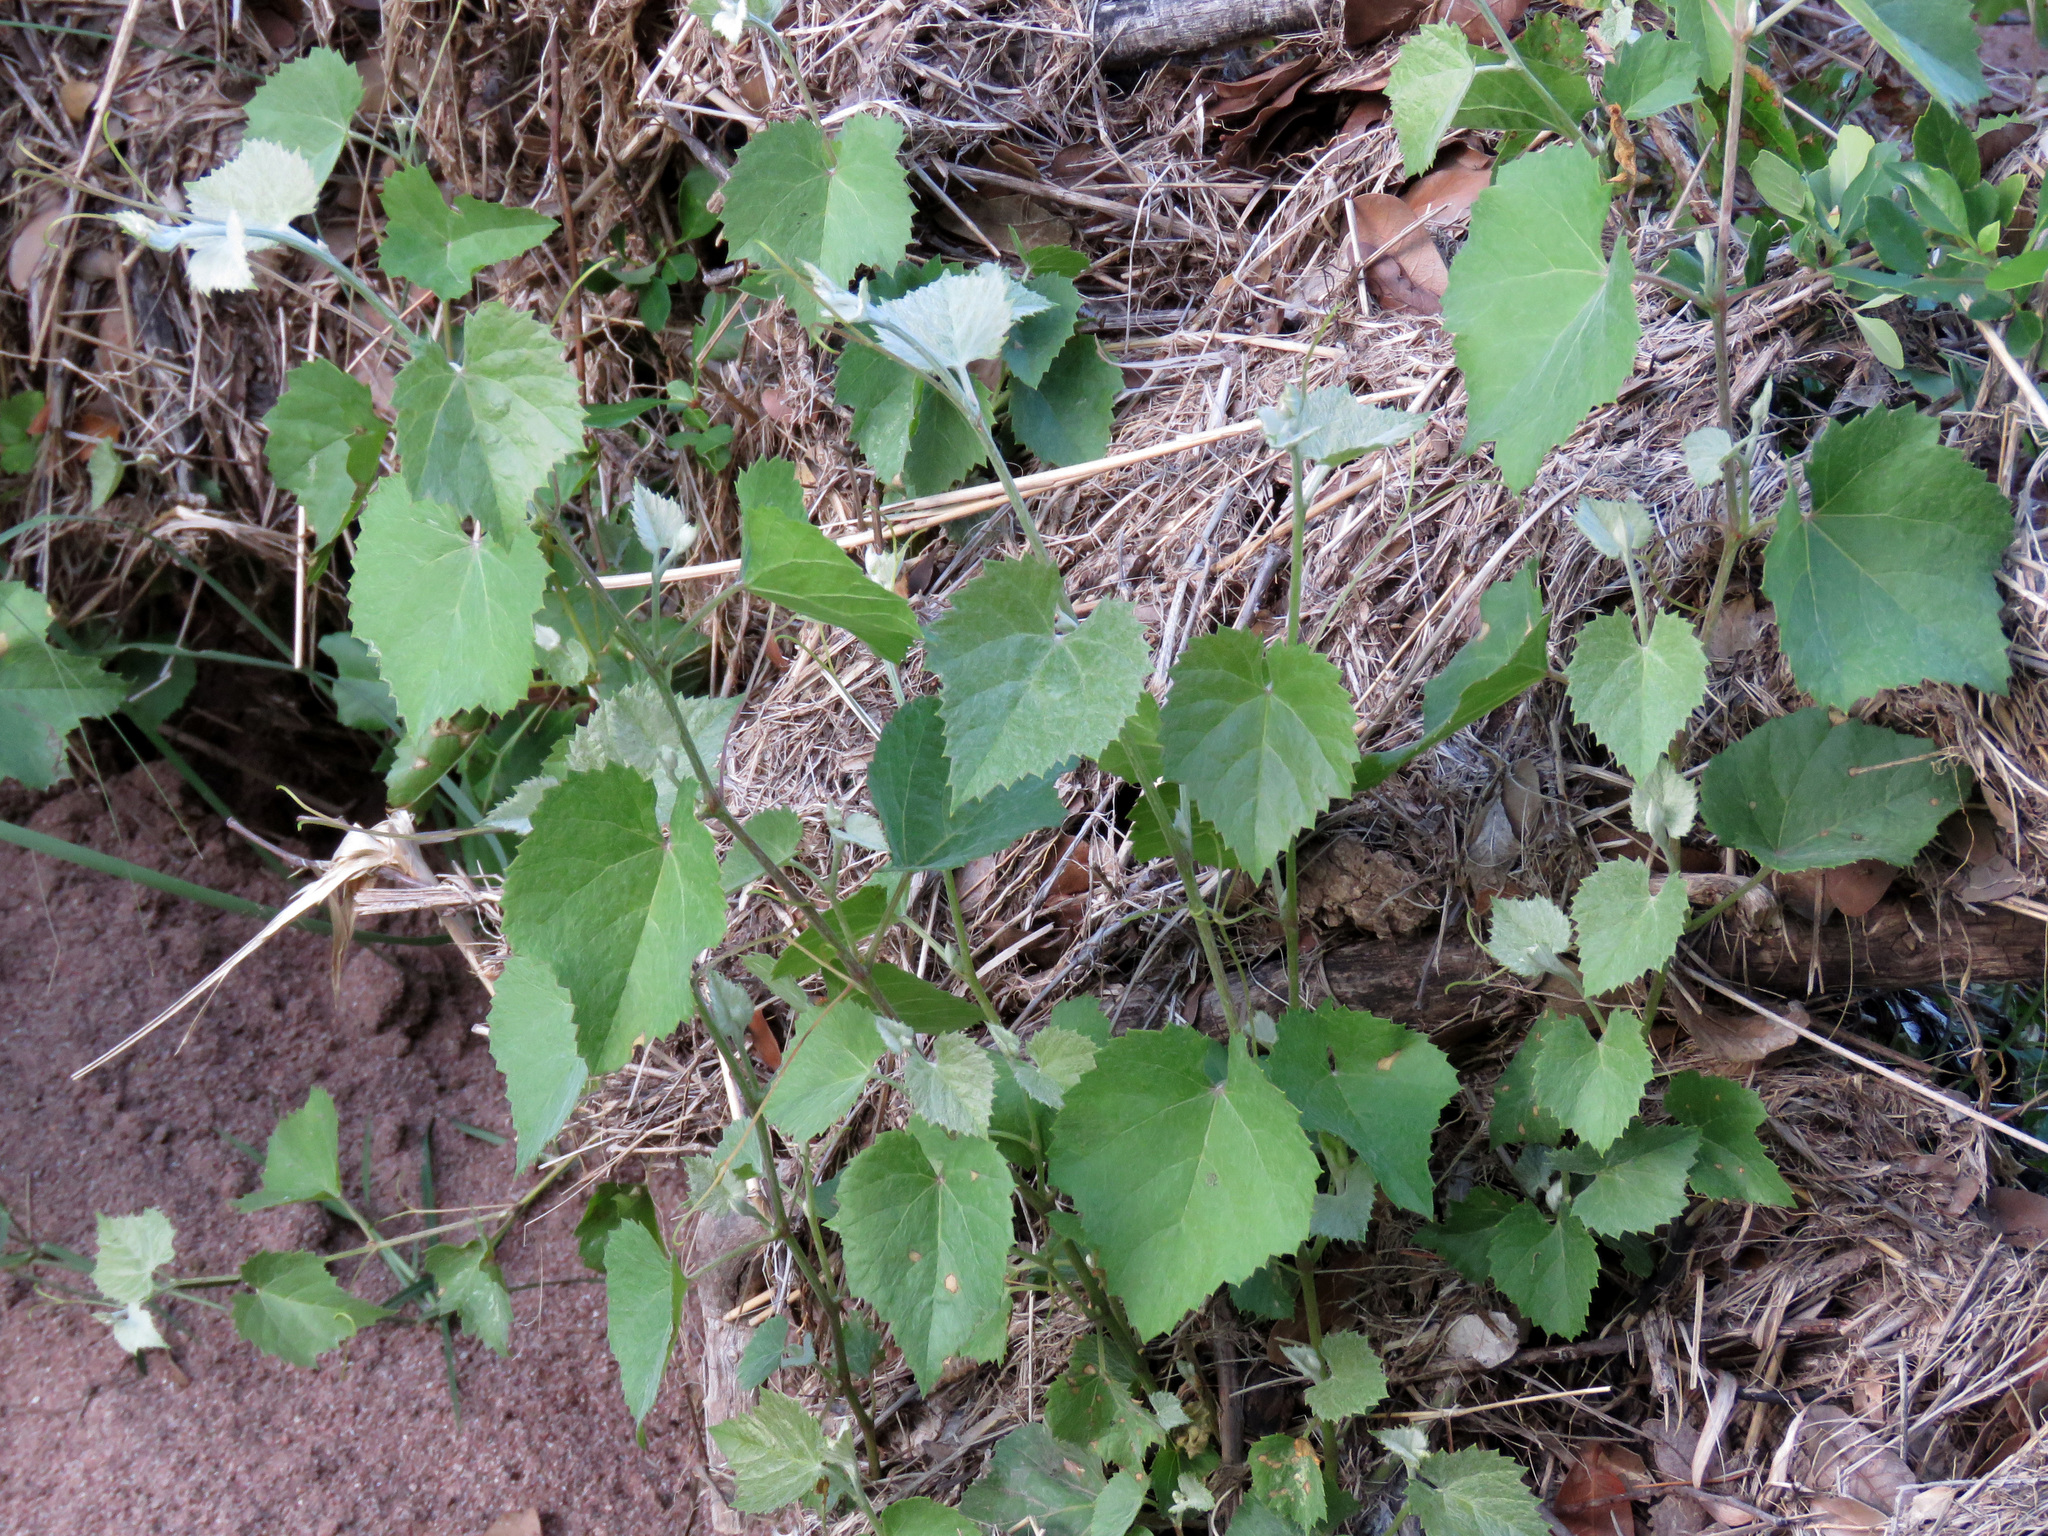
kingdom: Plantae
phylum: Tracheophyta
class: Magnoliopsida
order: Vitales
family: Vitaceae
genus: Vitis
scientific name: Vitis arizonica
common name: Canyon grape
